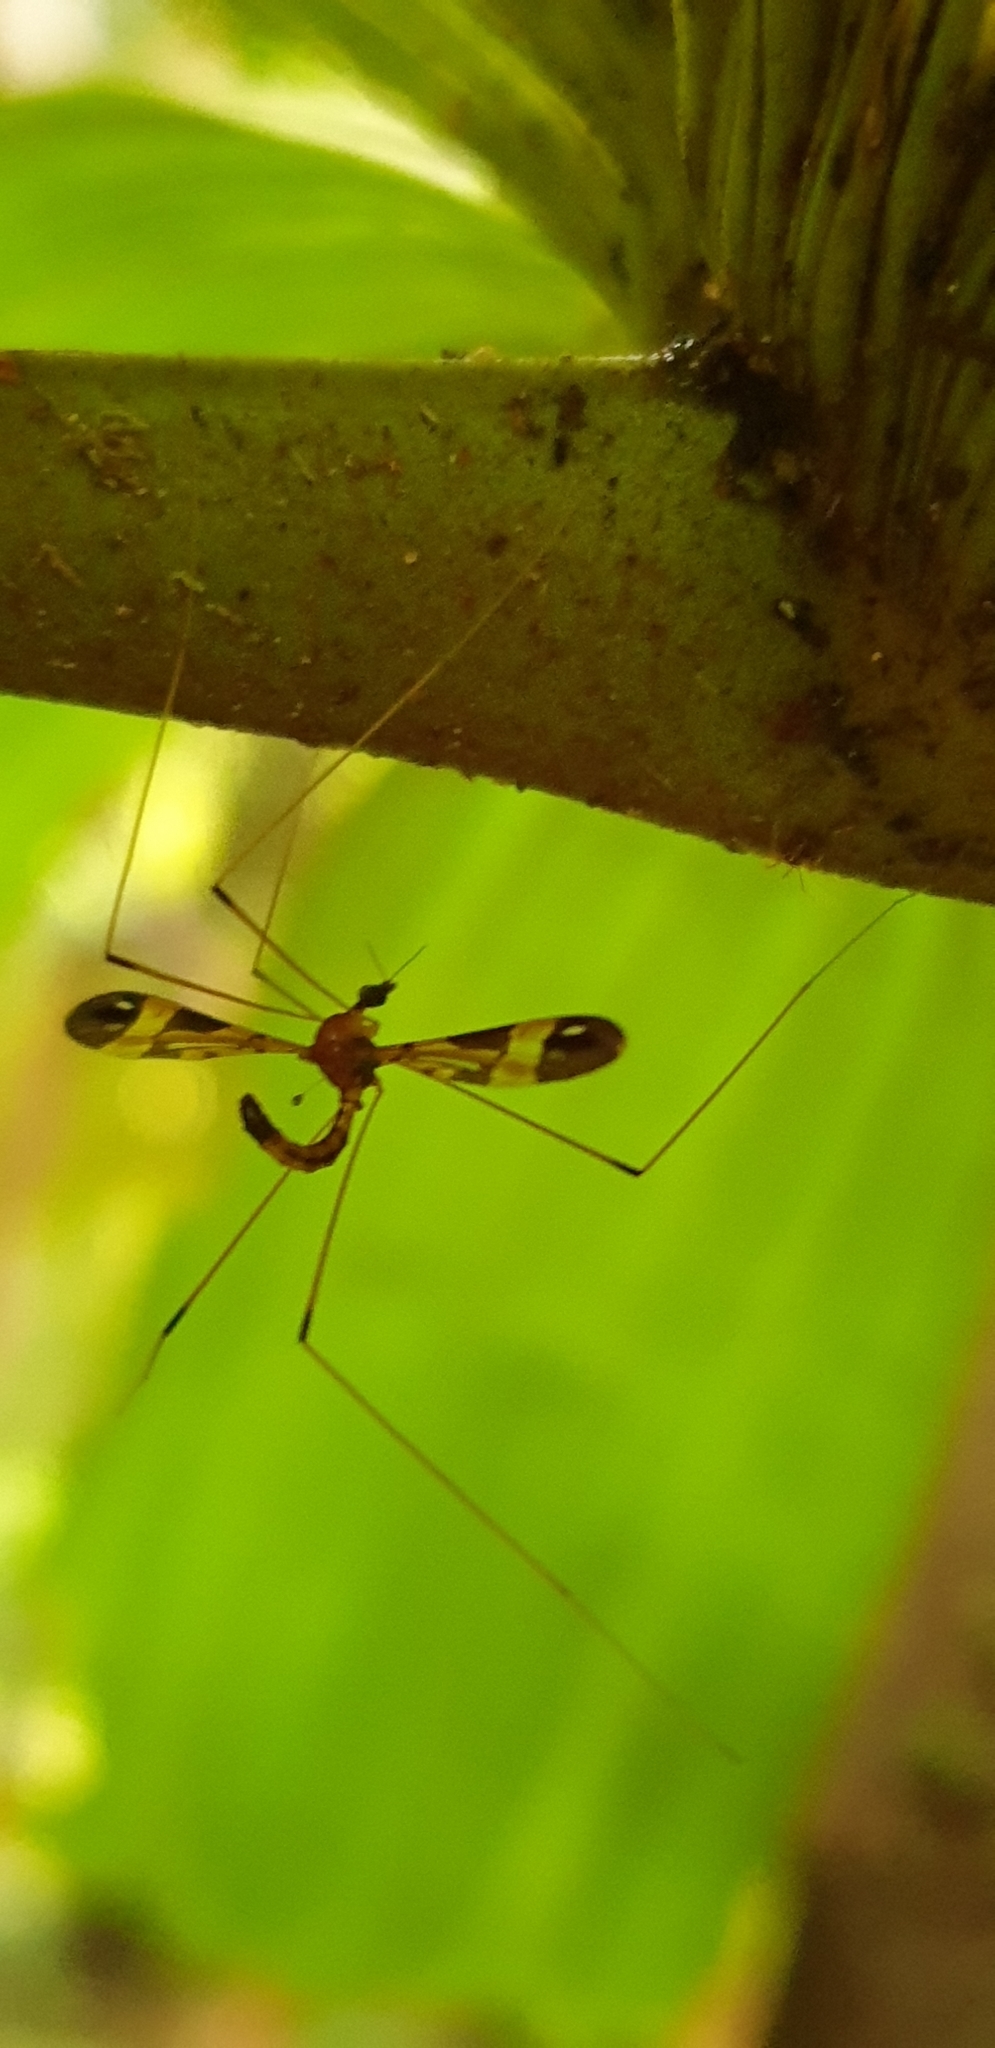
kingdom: Animalia
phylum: Arthropoda
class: Insecta
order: Diptera
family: Limoniidae
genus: Dapanoptera
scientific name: Dapanoptera richmondiana
